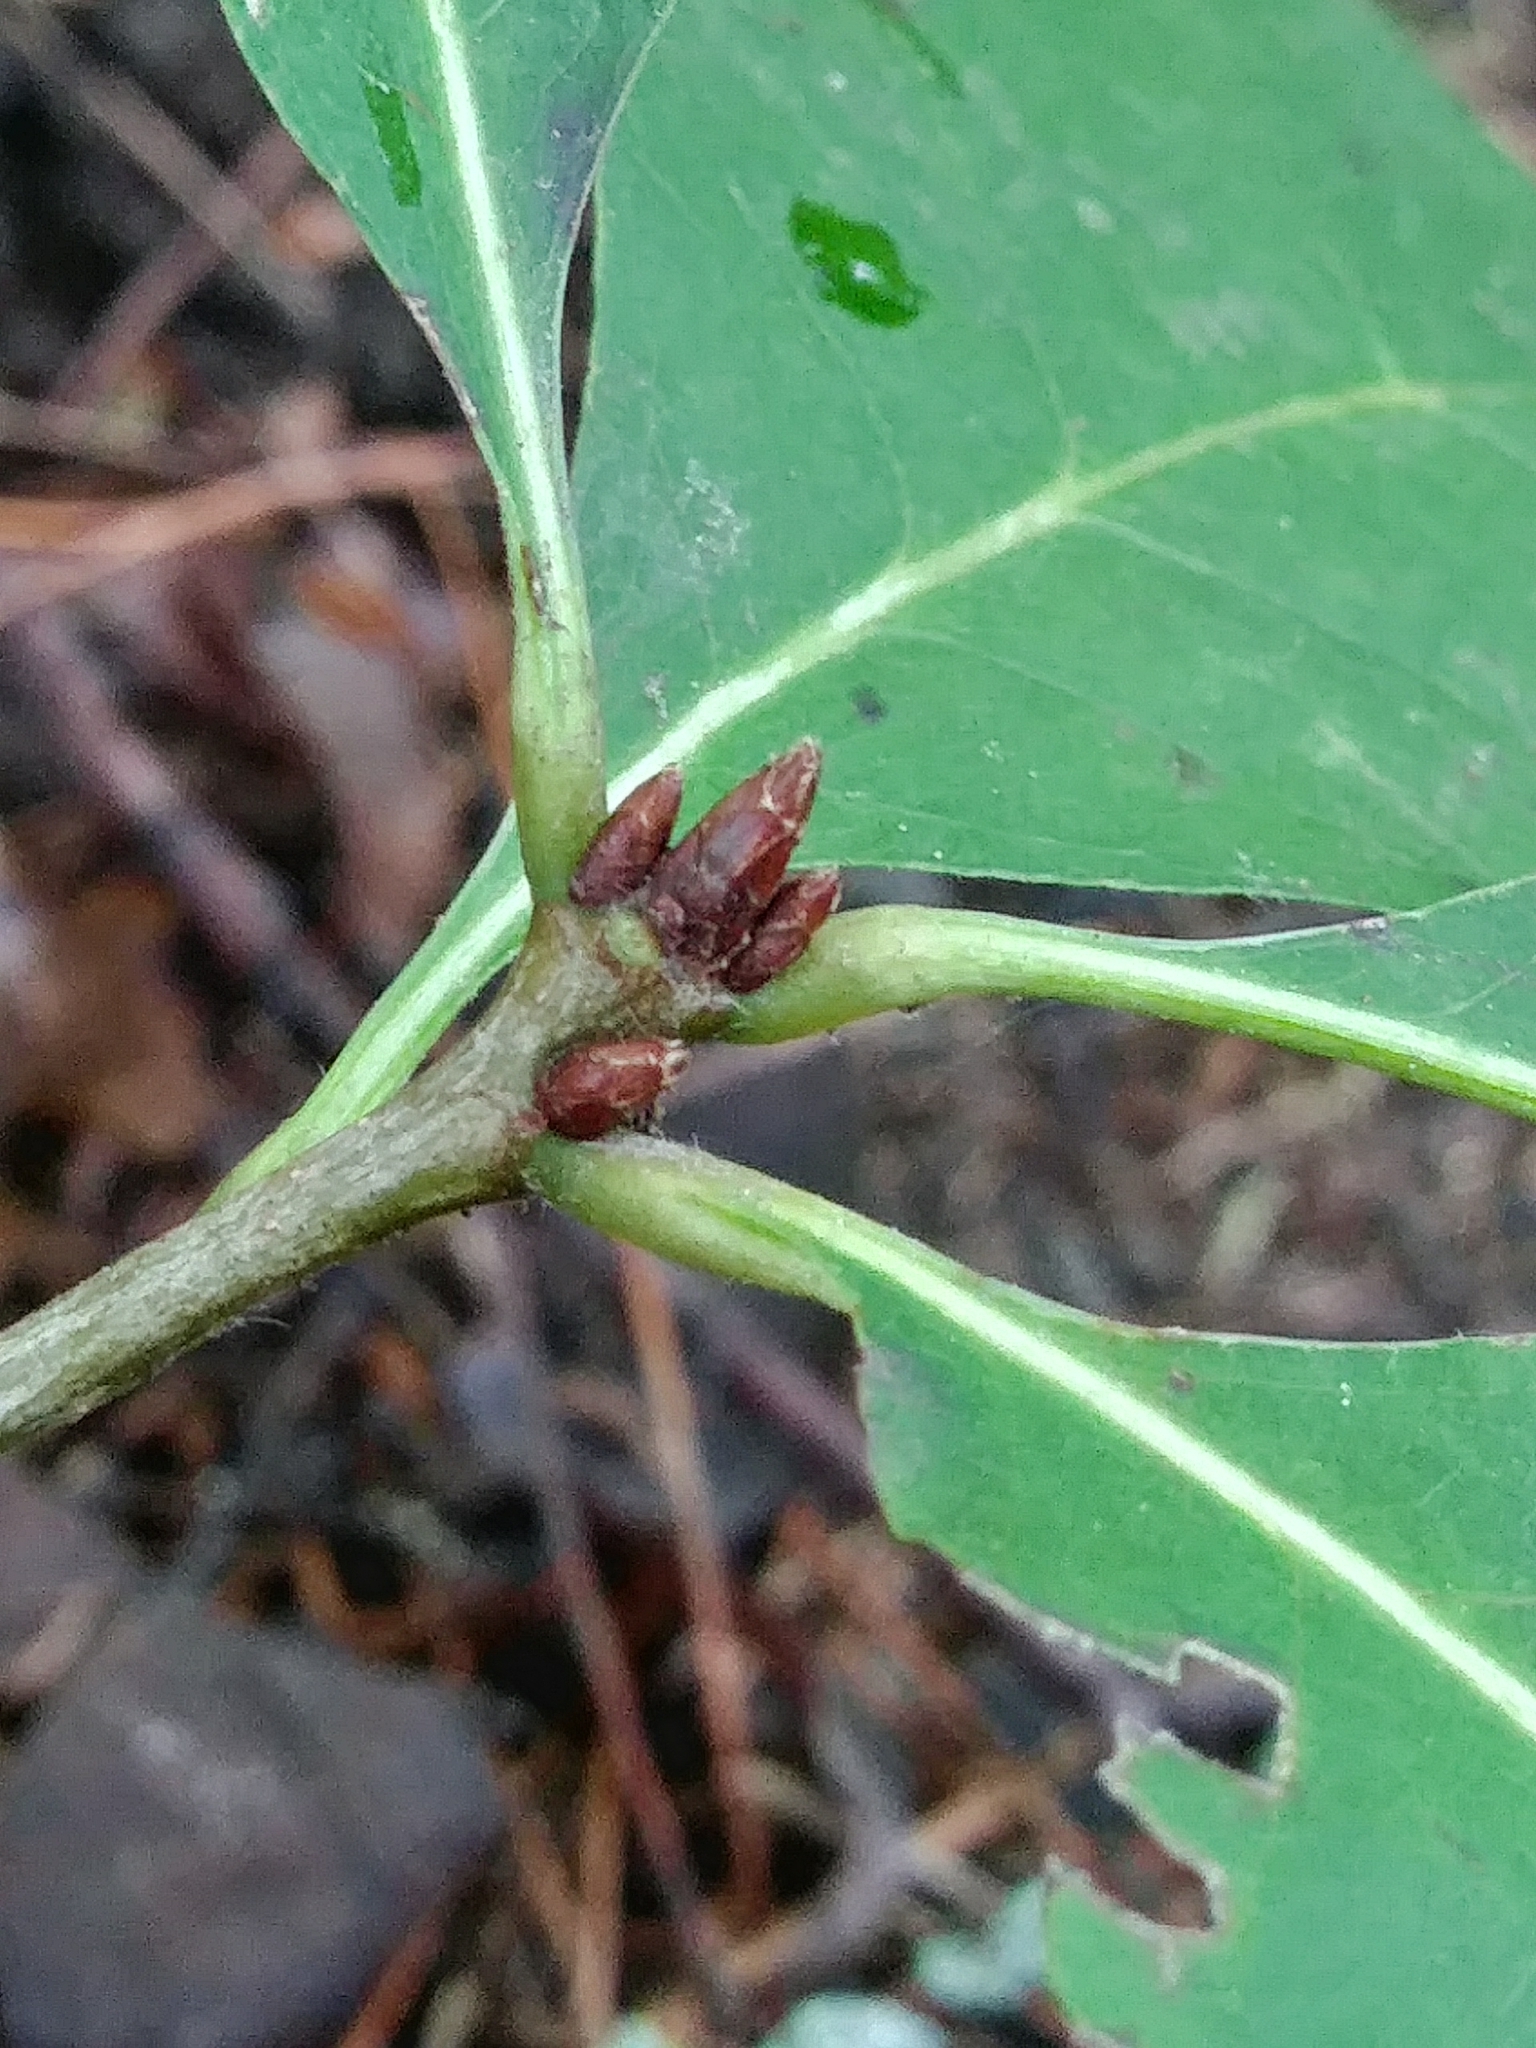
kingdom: Plantae
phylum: Tracheophyta
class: Magnoliopsida
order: Fagales
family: Fagaceae
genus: Quercus
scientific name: Quercus rubra
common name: Red oak
